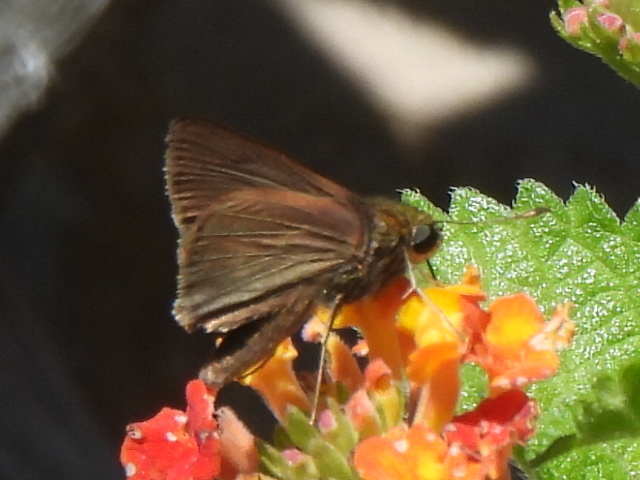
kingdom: Animalia
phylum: Arthropoda
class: Insecta
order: Lepidoptera
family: Hesperiidae
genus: Euphyes
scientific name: Euphyes vestris
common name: Dun skipper
